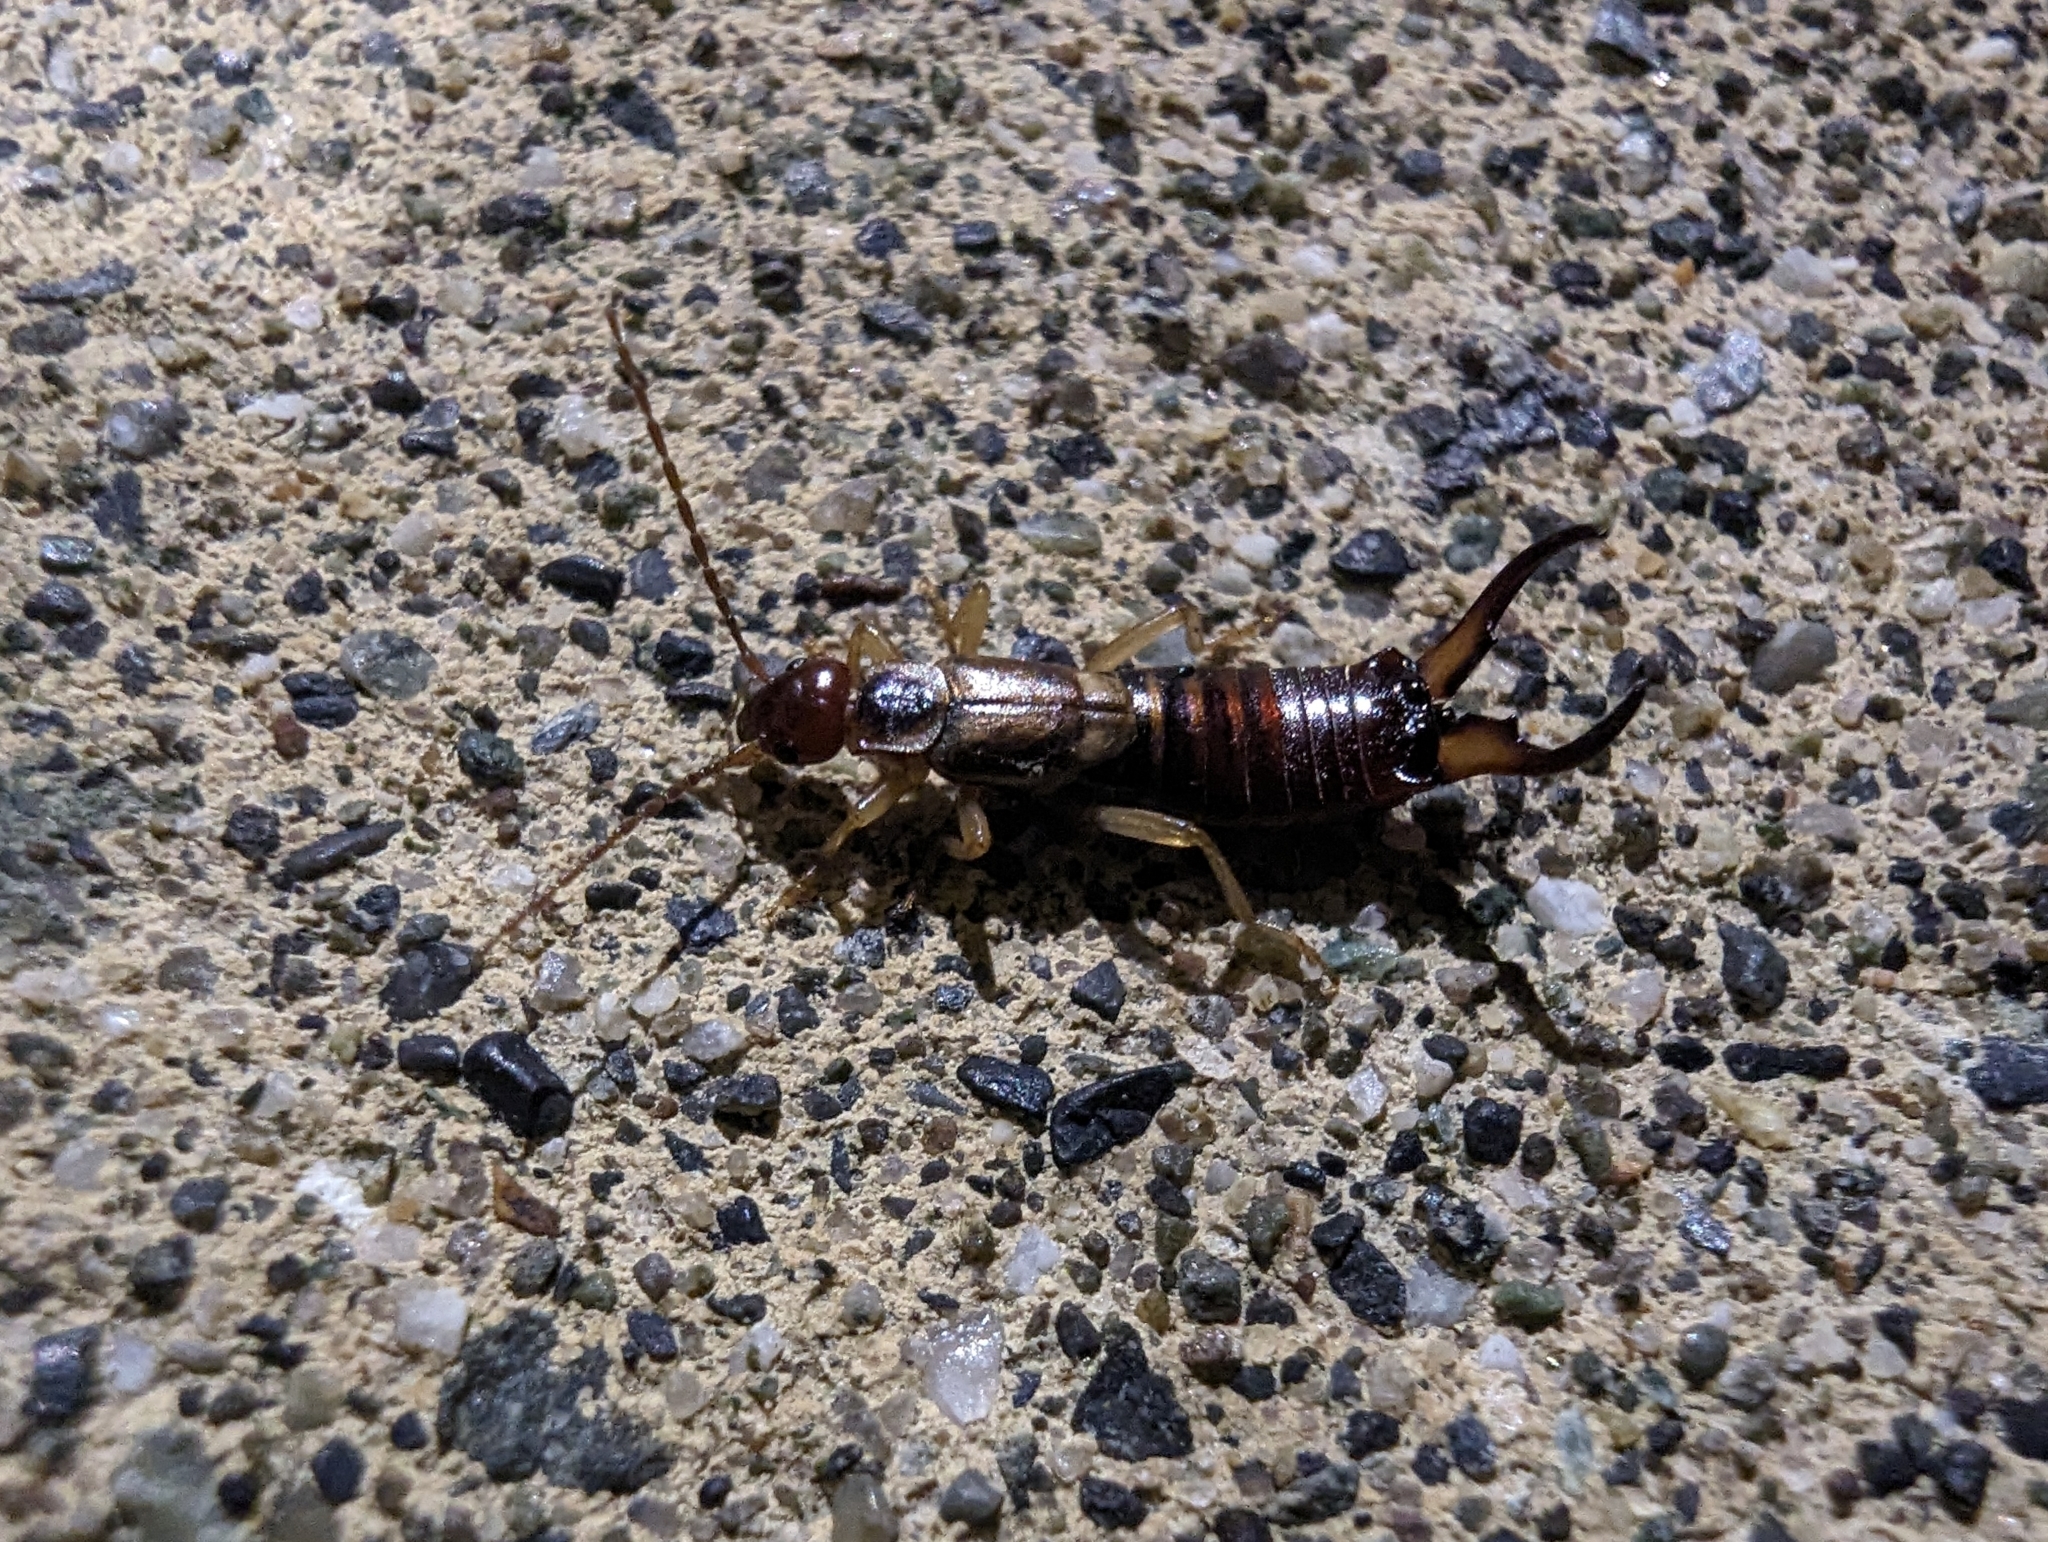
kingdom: Animalia
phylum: Arthropoda
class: Insecta
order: Dermaptera
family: Forficulidae
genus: Forficula
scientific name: Forficula dentata
